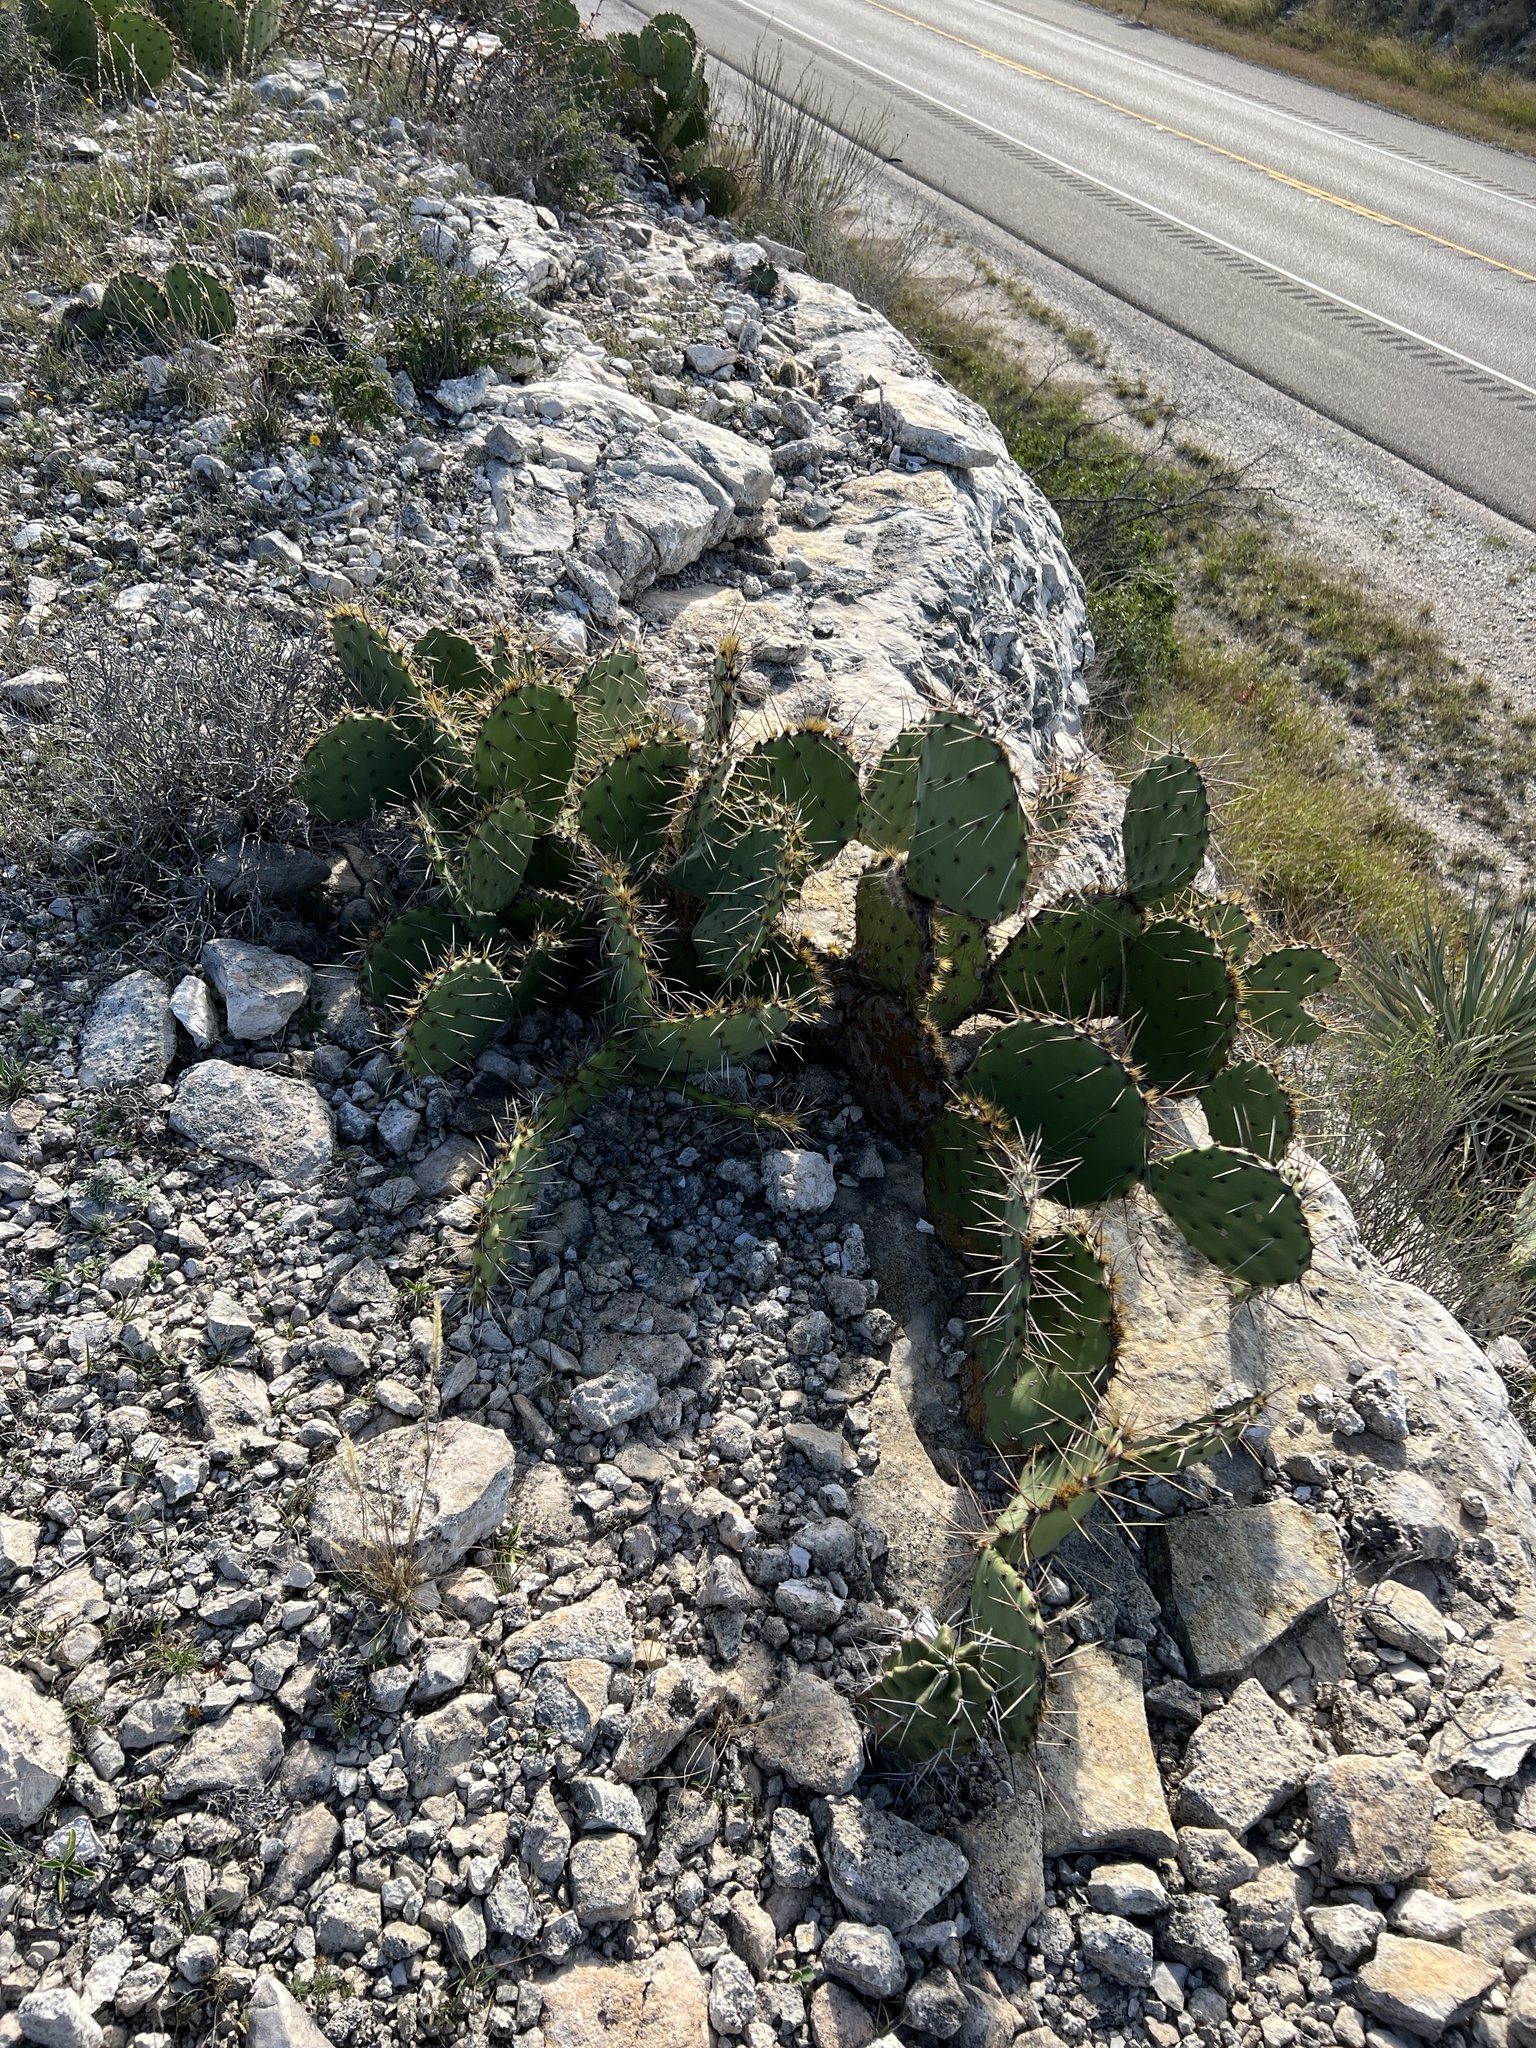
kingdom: Plantae
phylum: Tracheophyta
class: Magnoliopsida
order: Caryophyllales
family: Cactaceae
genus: Opuntia
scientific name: Opuntia phaeacantha
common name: New mexico prickly-pear
